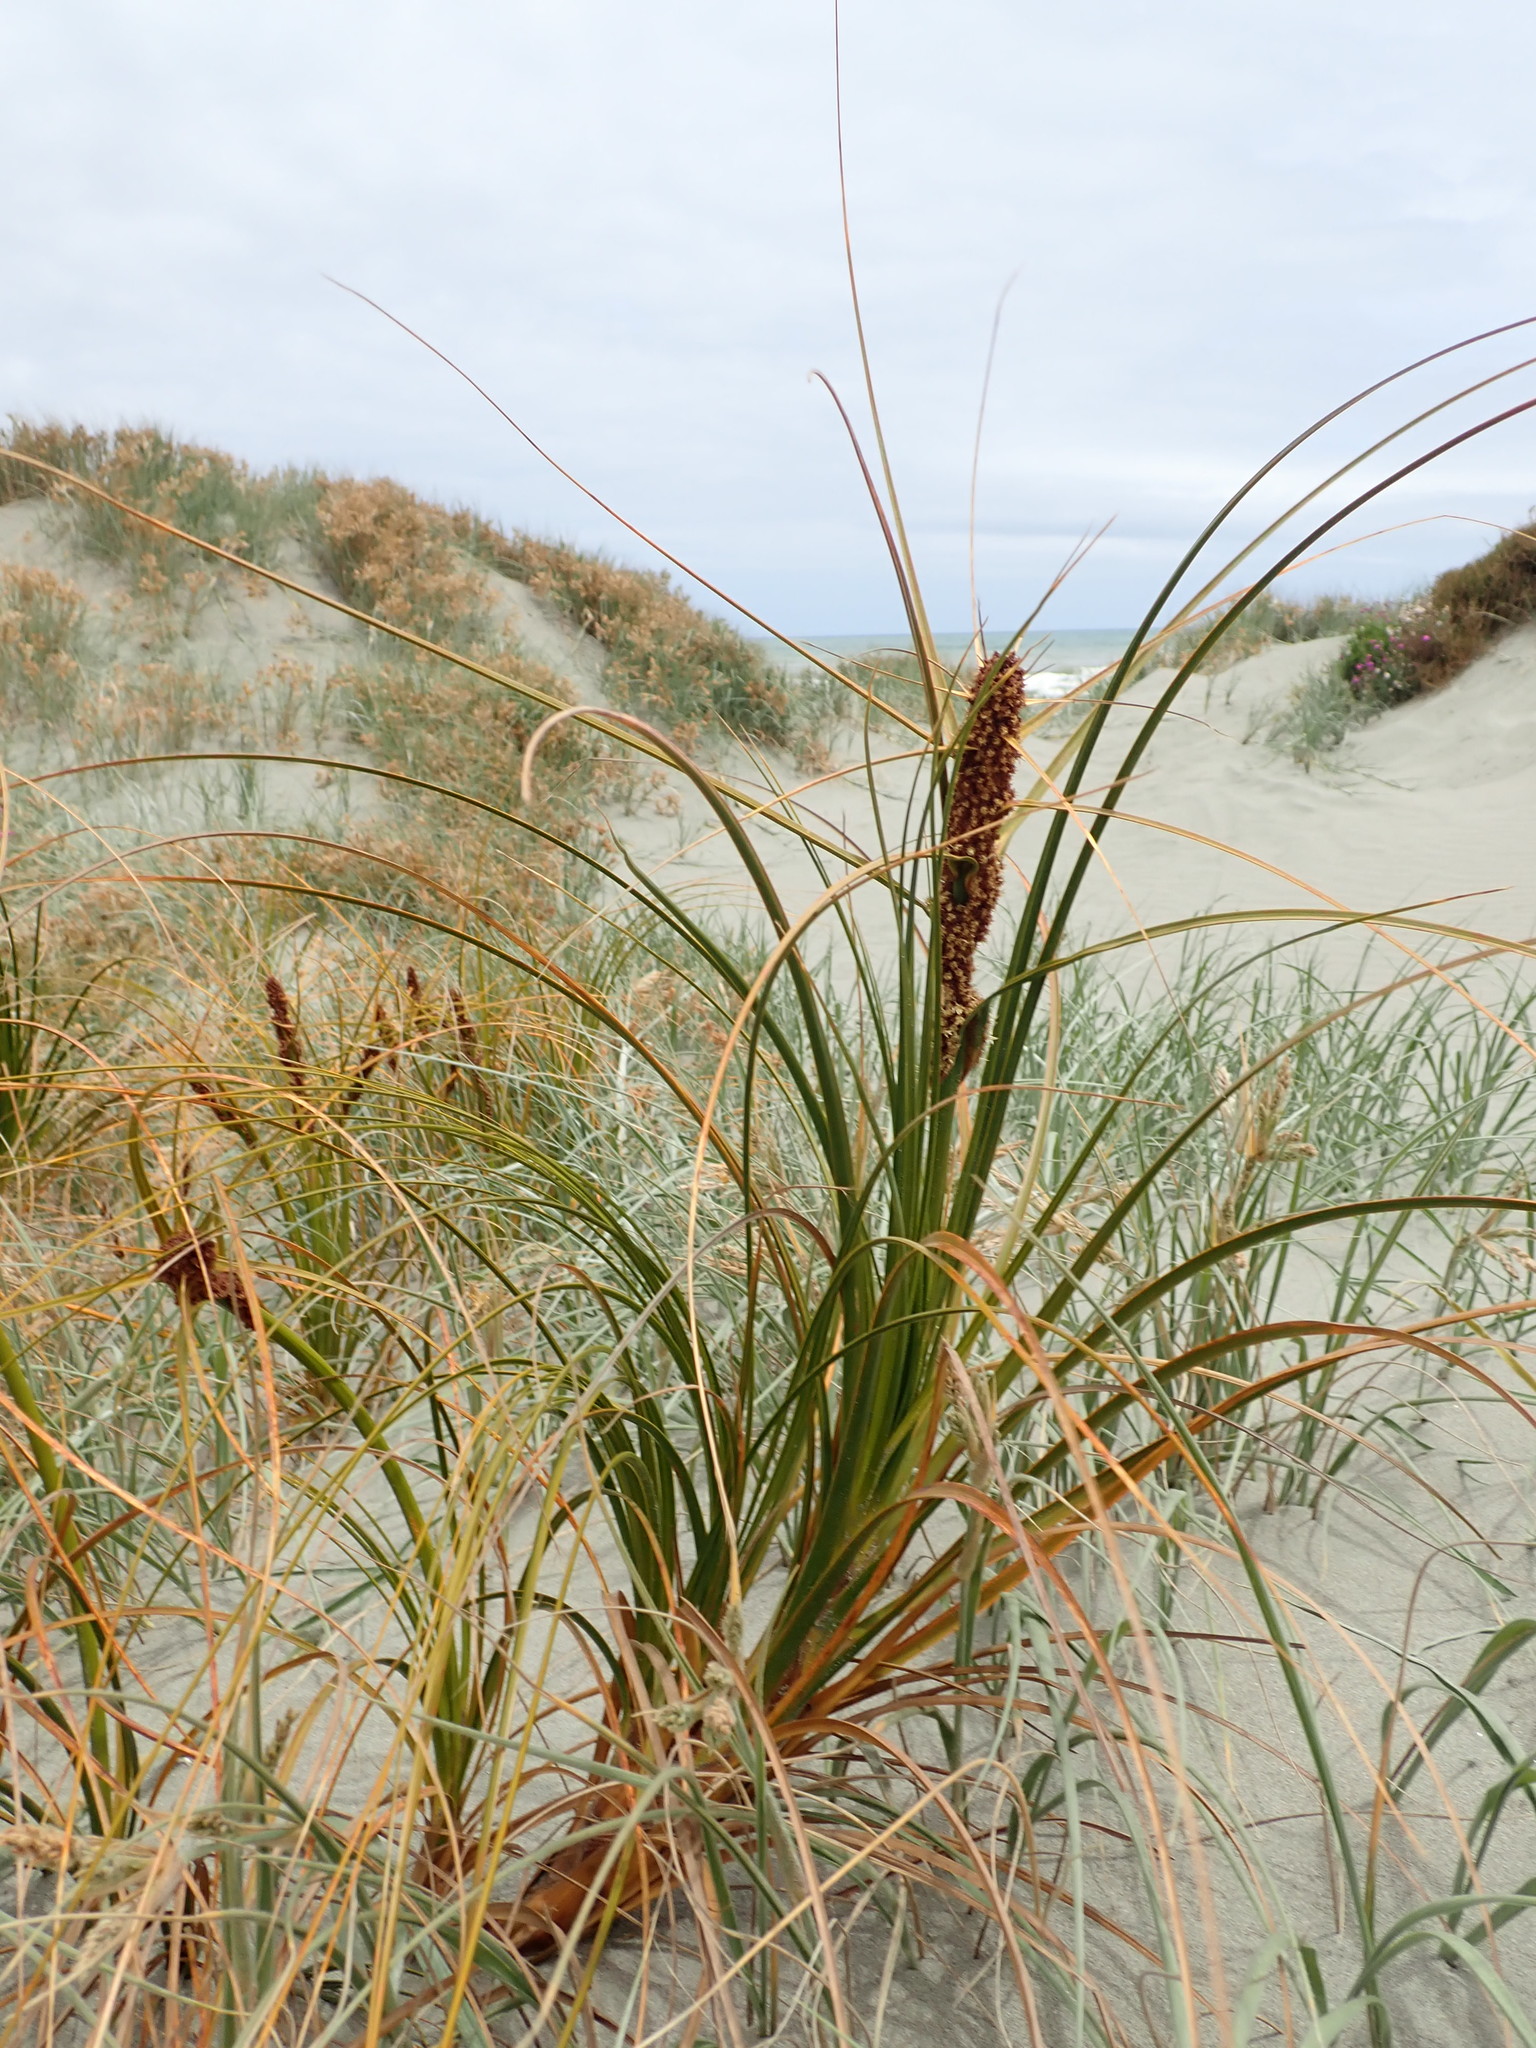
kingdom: Plantae
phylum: Tracheophyta
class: Liliopsida
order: Poales
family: Cyperaceae
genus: Ficinia
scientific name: Ficinia spiralis
